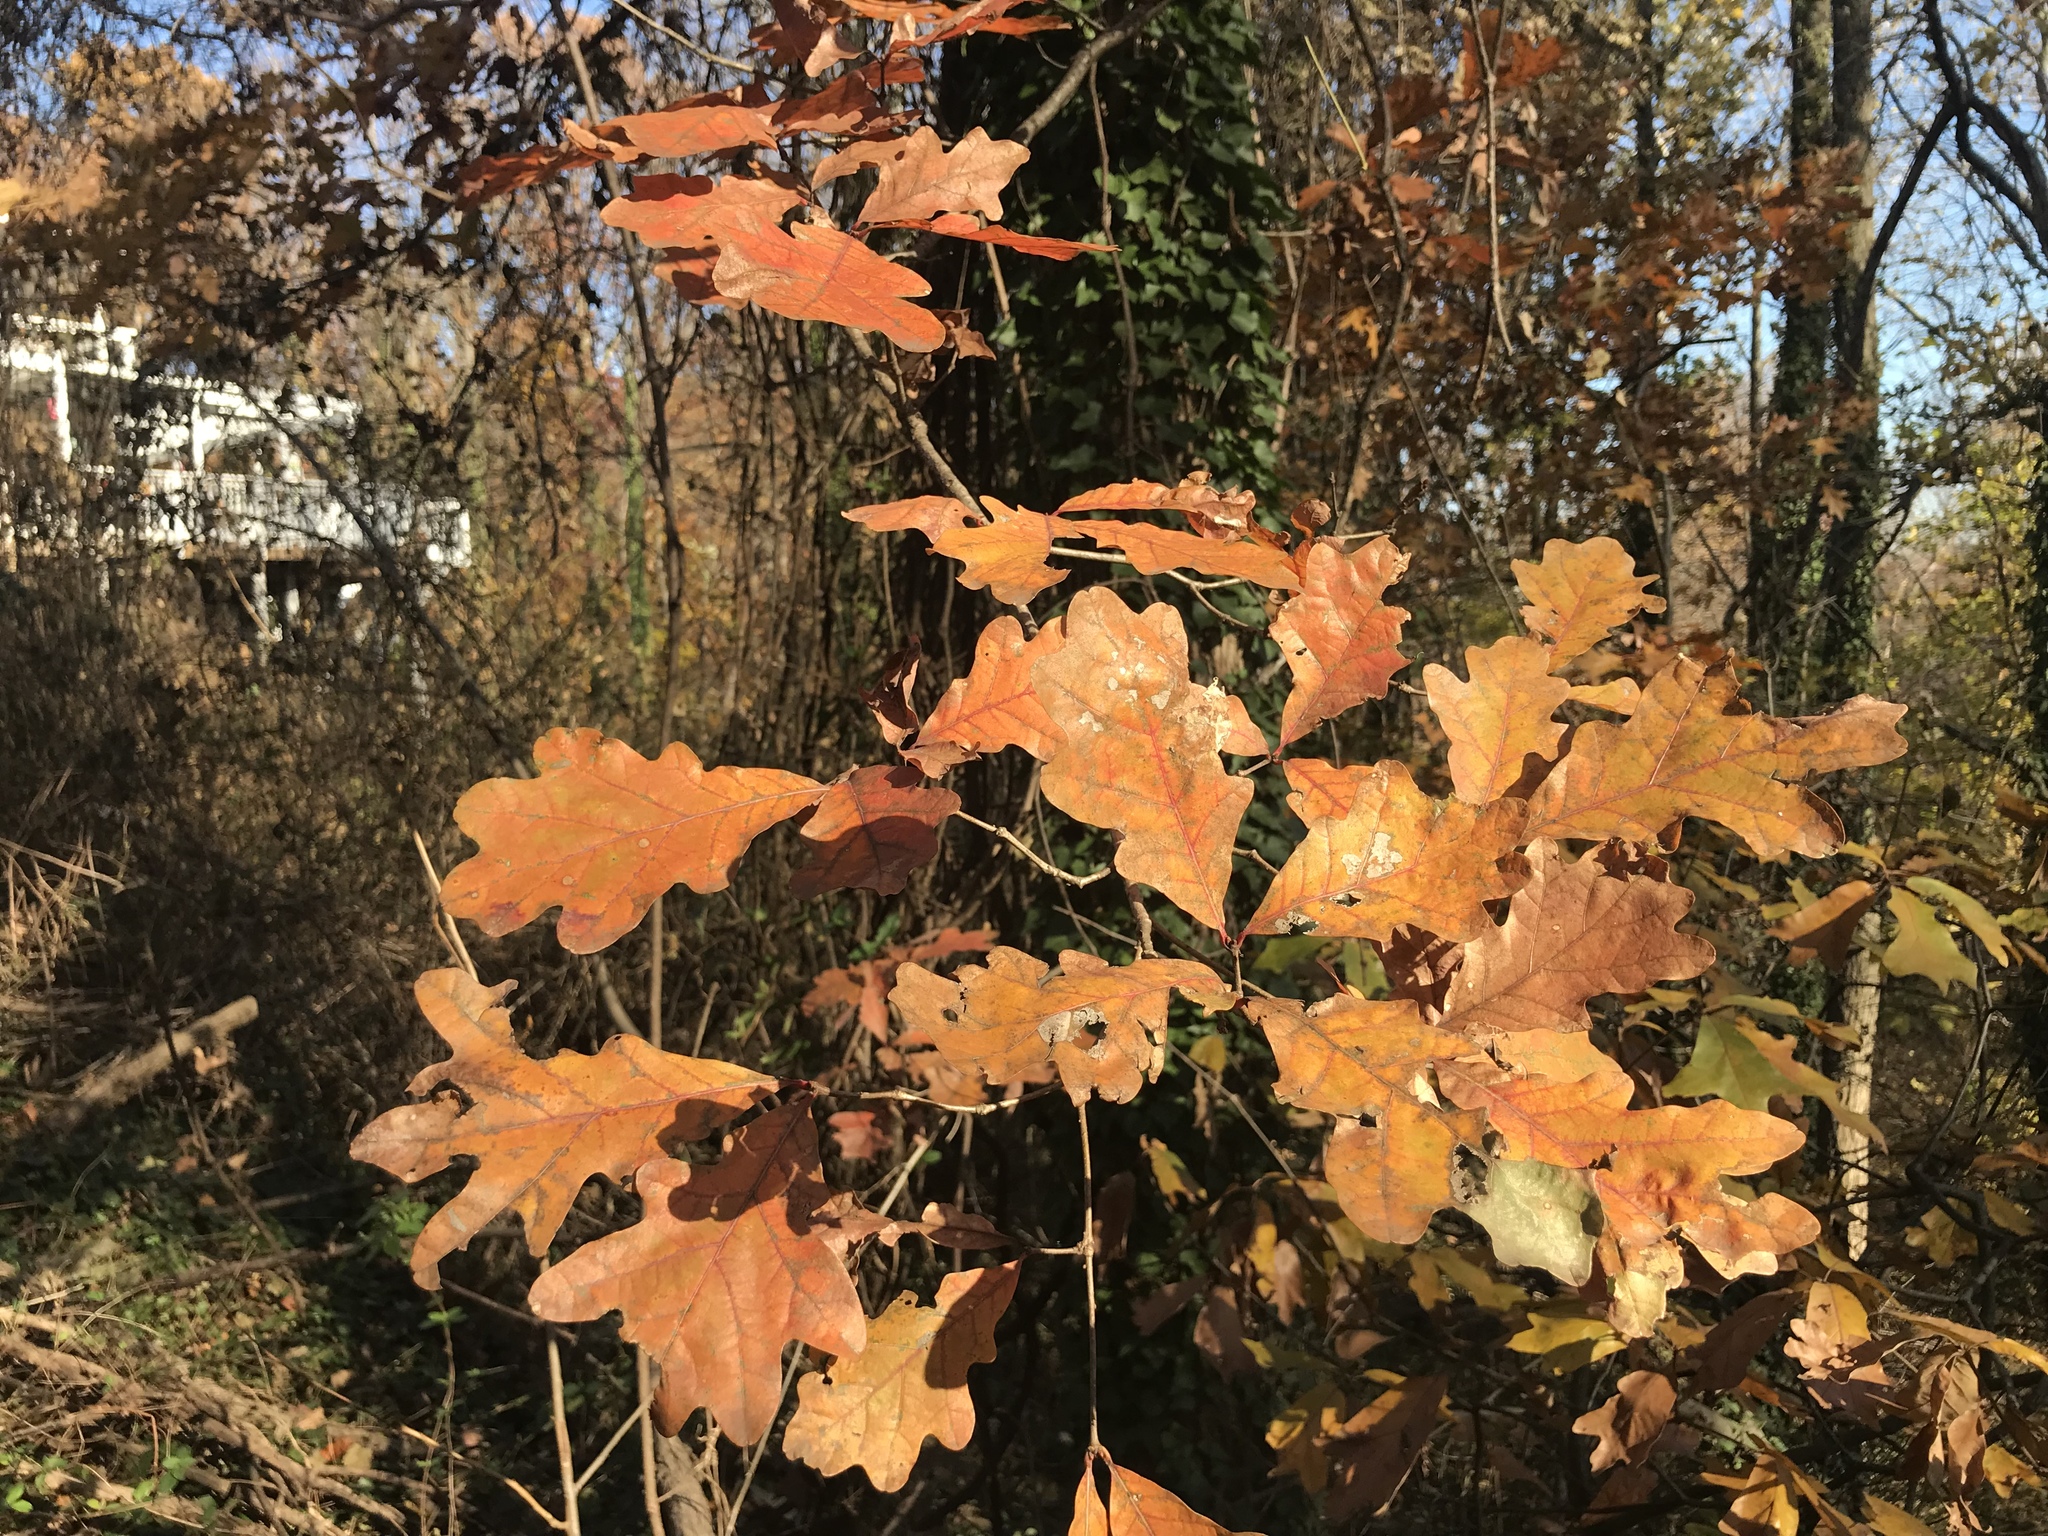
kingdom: Plantae
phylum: Tracheophyta
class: Magnoliopsida
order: Fagales
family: Fagaceae
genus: Quercus
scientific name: Quercus alba
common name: White oak
